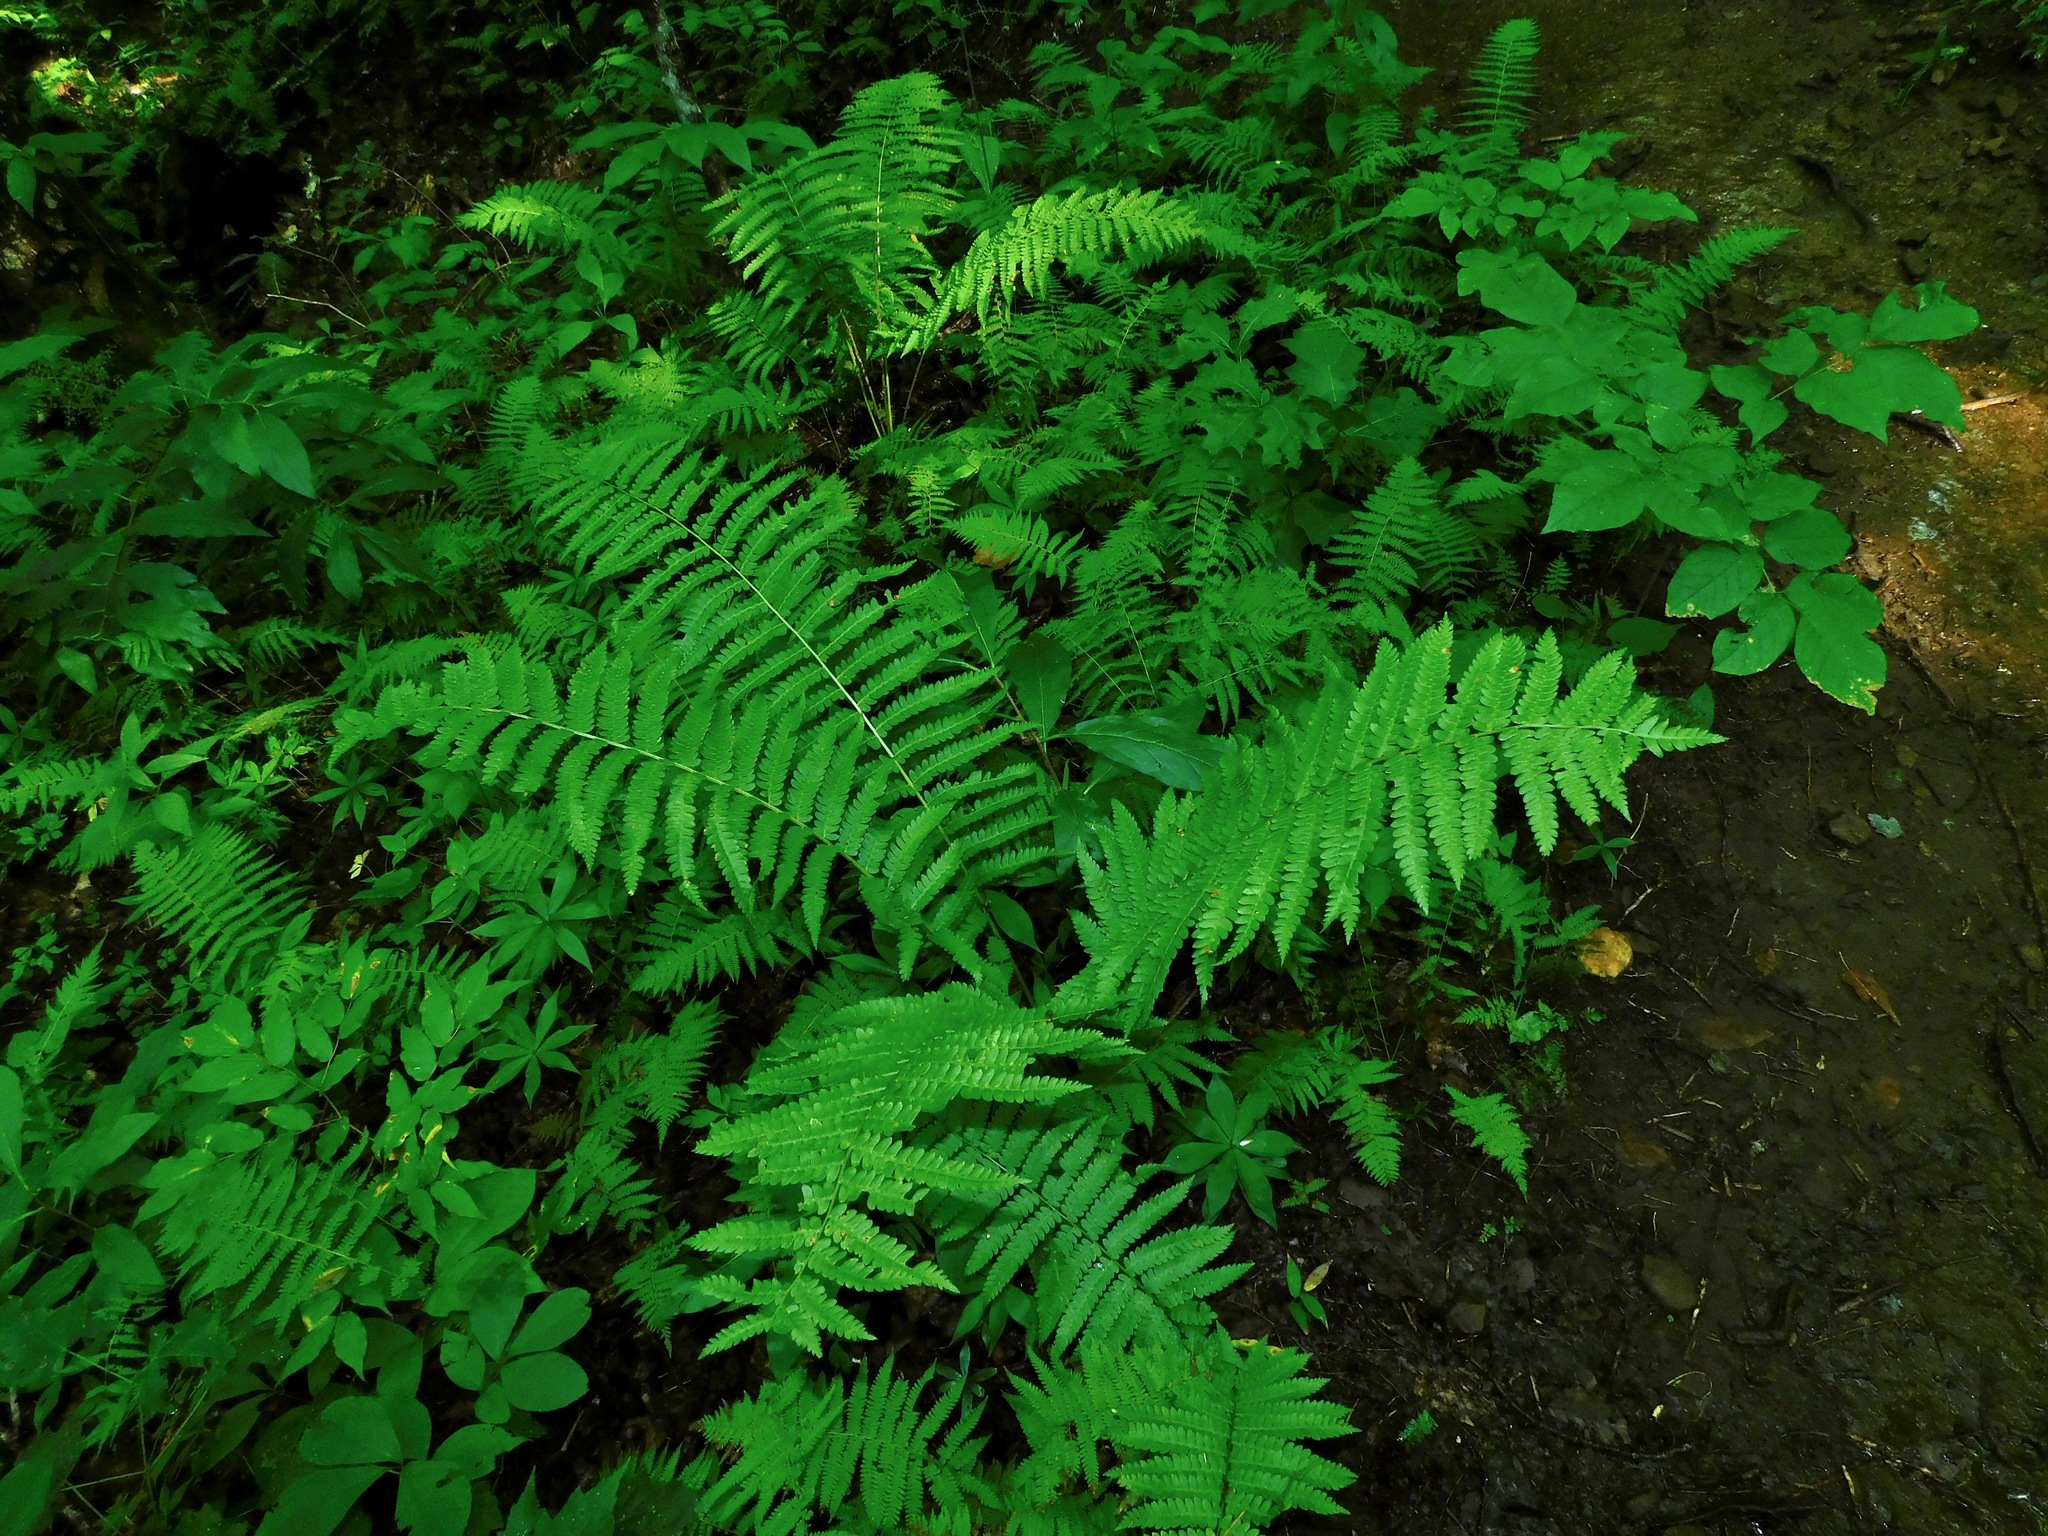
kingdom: Plantae
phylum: Tracheophyta
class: Polypodiopsida
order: Osmundales
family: Osmundaceae
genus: Osmundastrum
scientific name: Osmundastrum cinnamomeum
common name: Cinnamon fern
